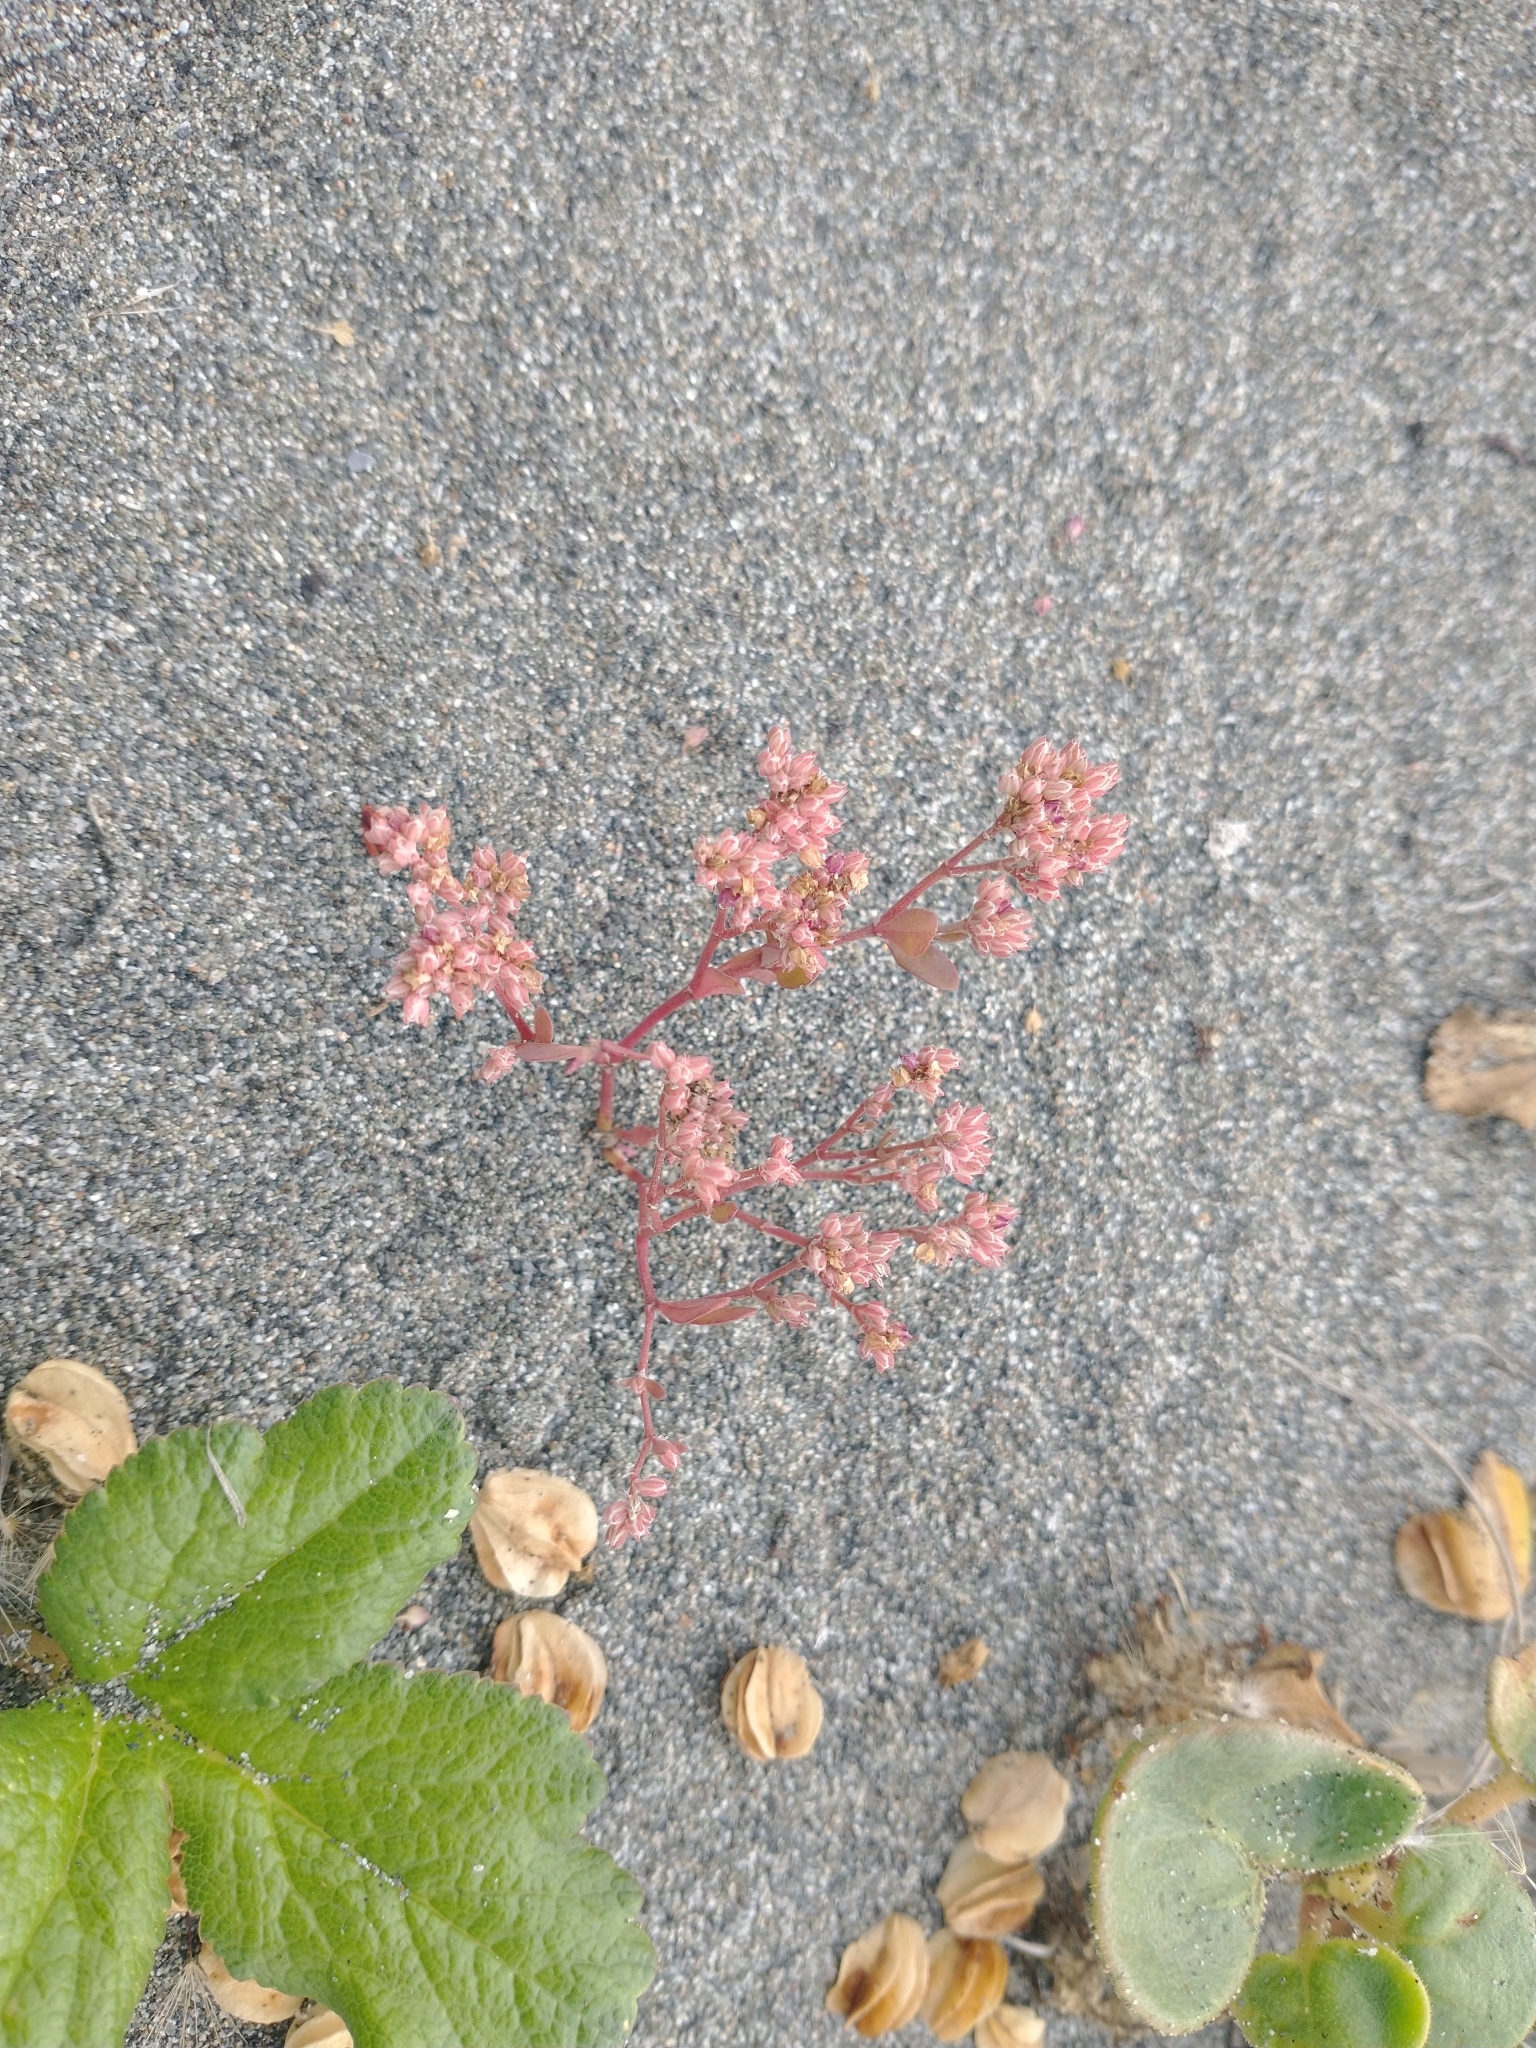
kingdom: Plantae
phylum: Tracheophyta
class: Magnoliopsida
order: Caryophyllales
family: Caryophyllaceae
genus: Polycarpon
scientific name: Polycarpon tetraphyllum
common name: Four-leaved all-seed
